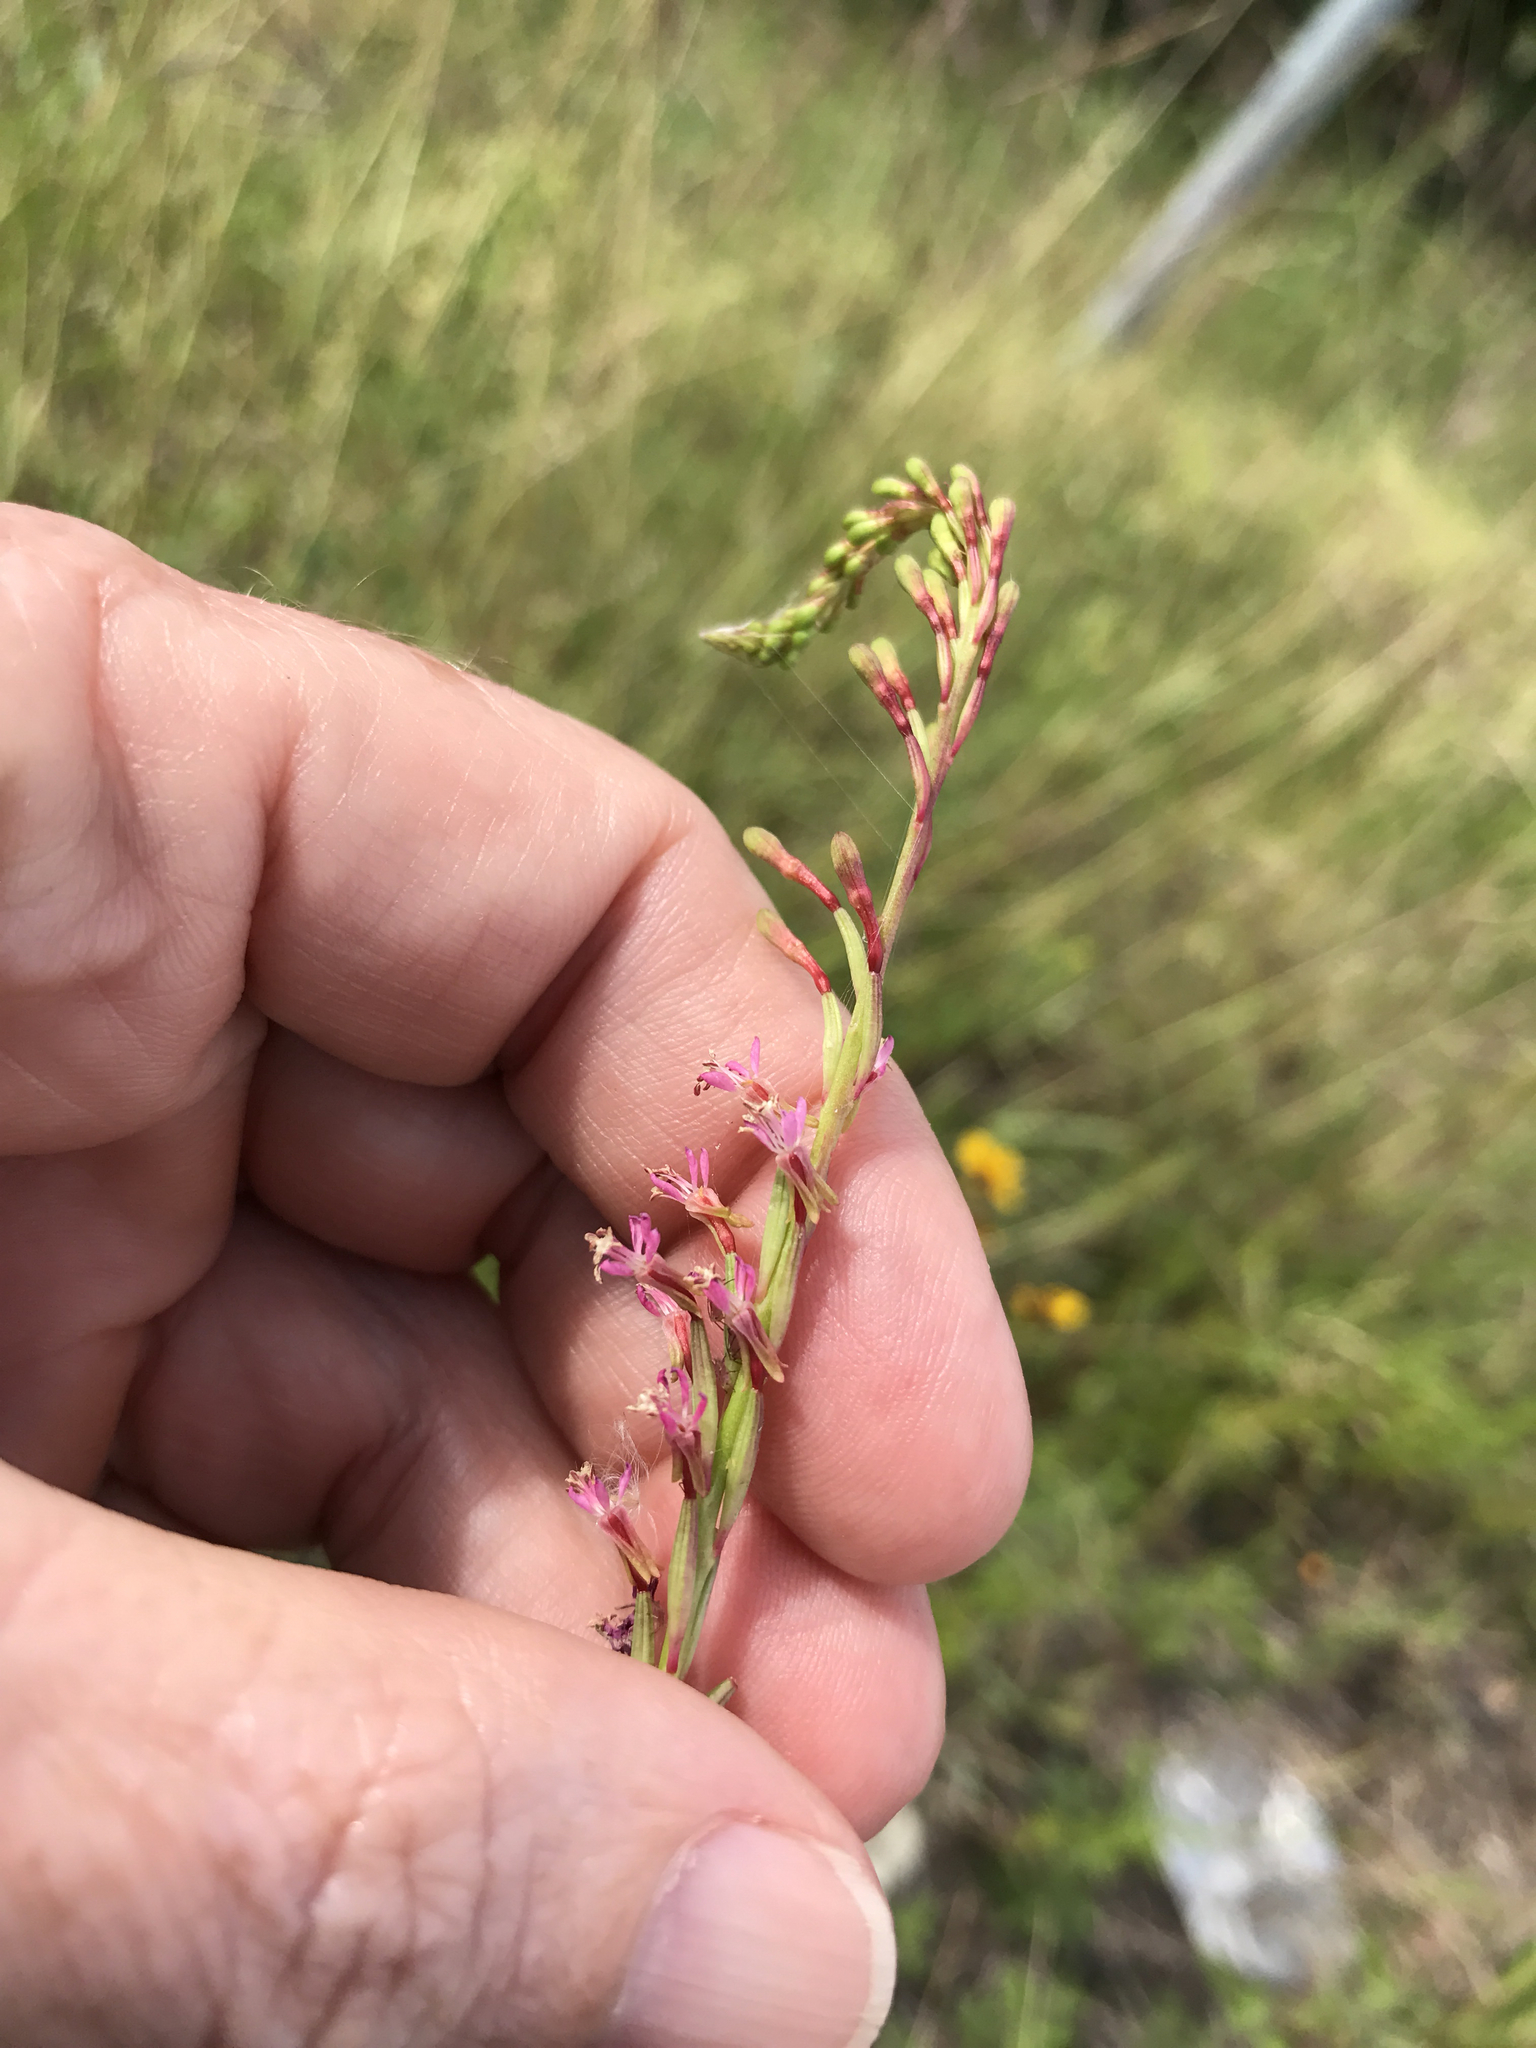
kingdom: Plantae
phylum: Tracheophyta
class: Magnoliopsida
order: Myrtales
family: Onagraceae
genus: Oenothera
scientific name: Oenothera curtiflora
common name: Velvetweed
